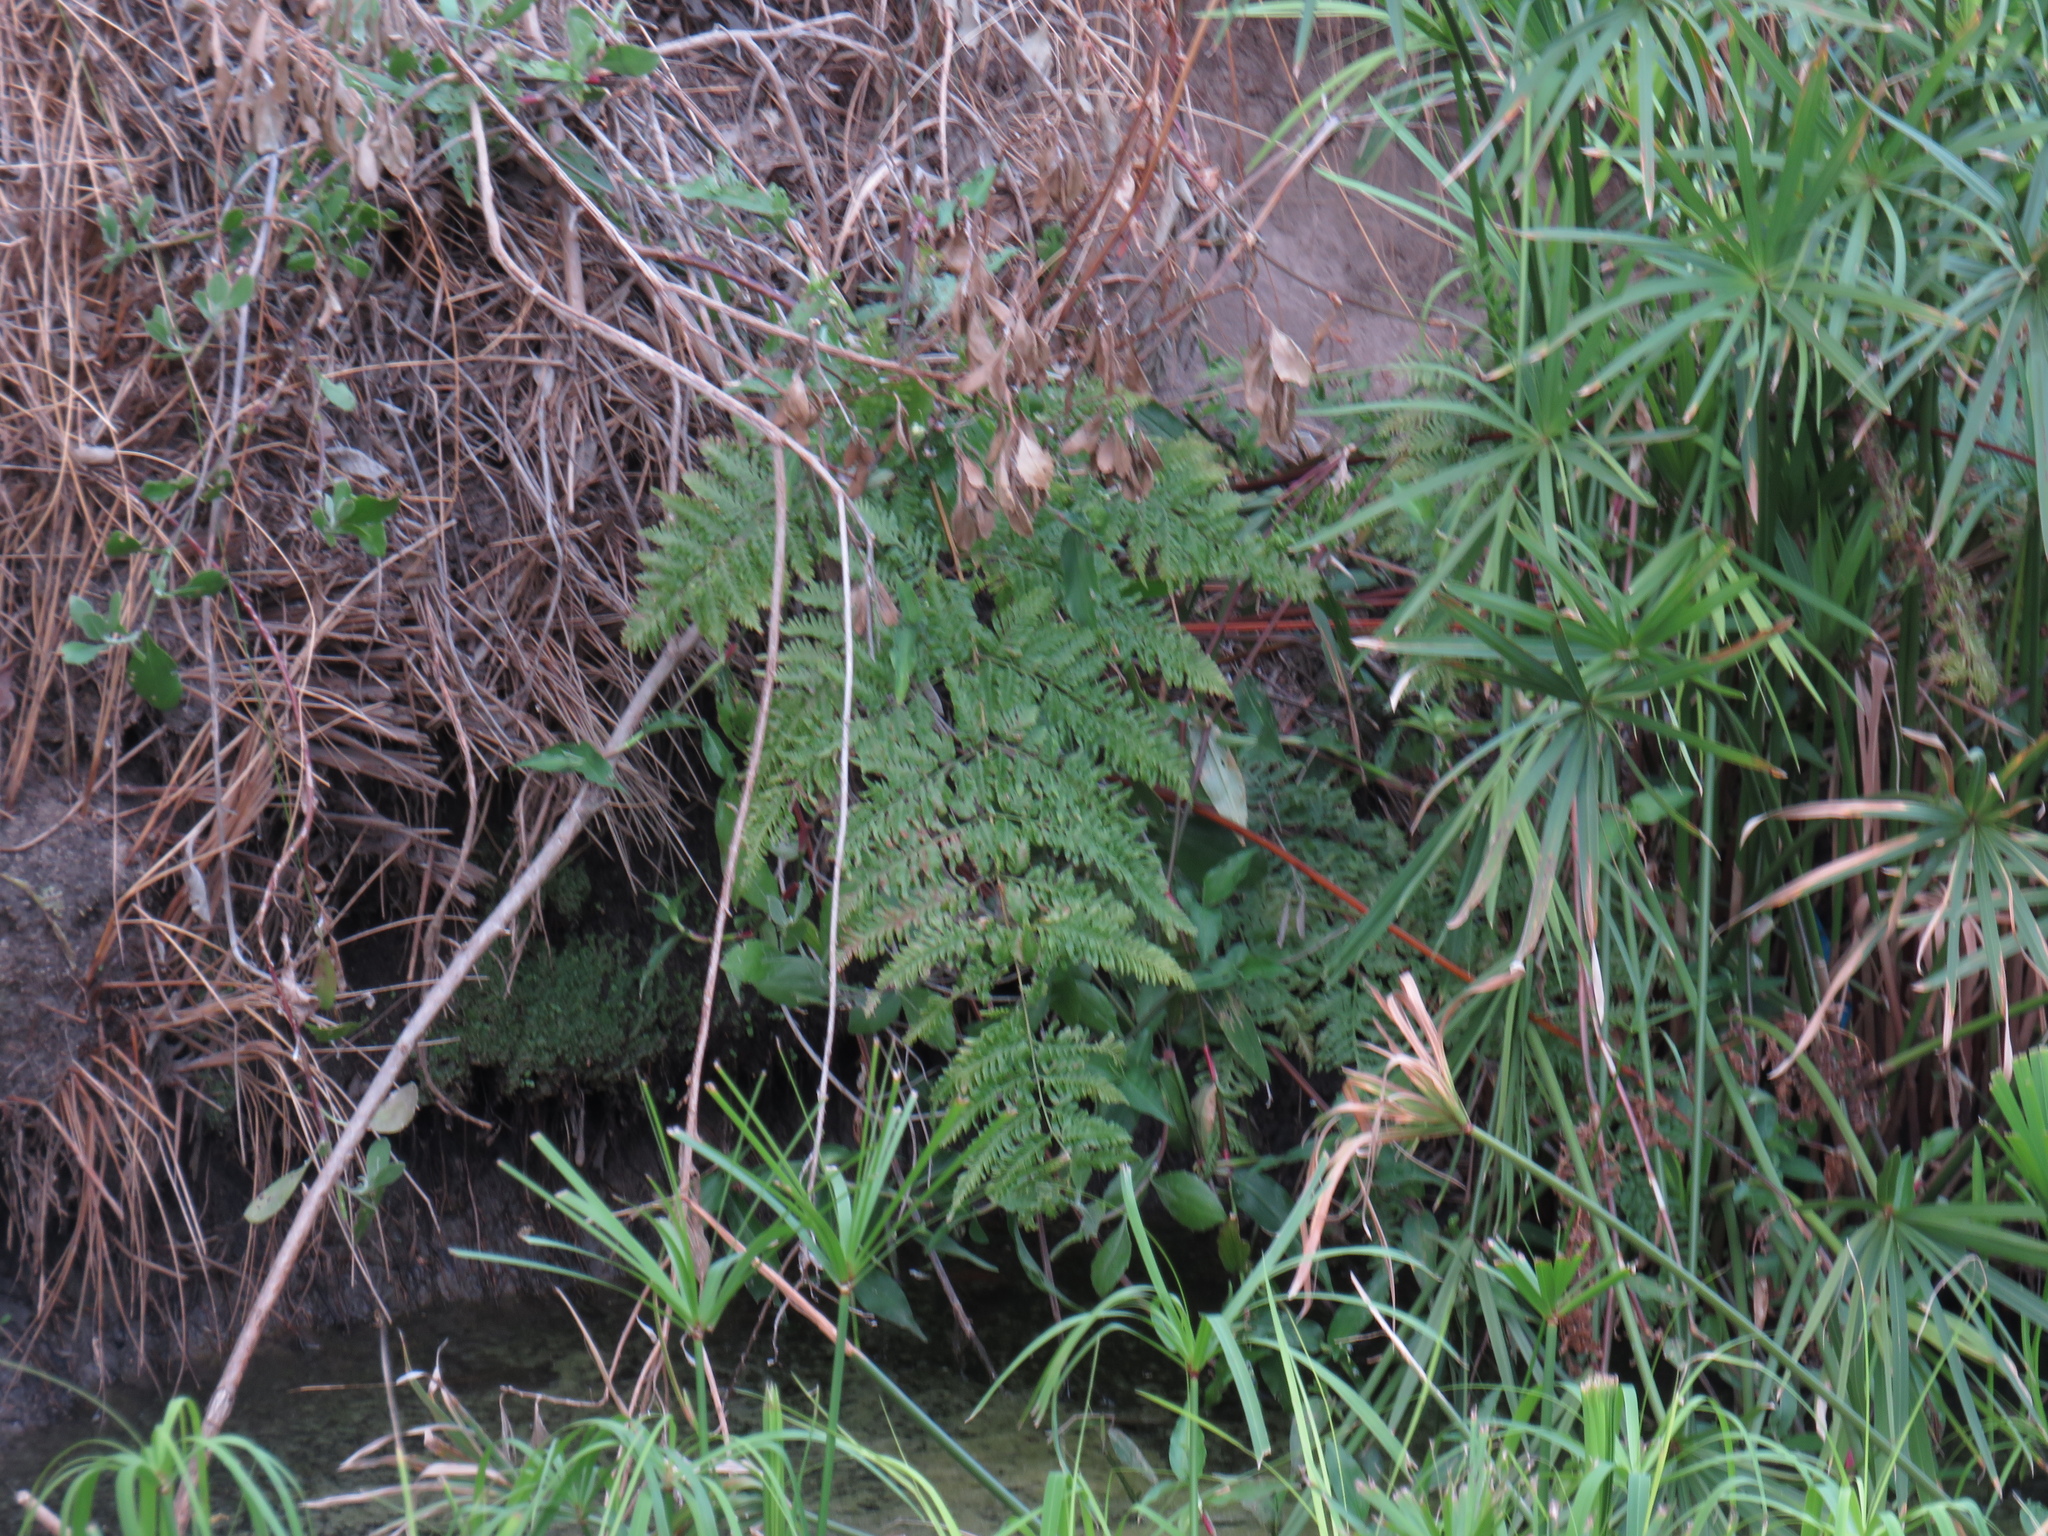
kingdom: Plantae
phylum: Tracheophyta
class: Polypodiopsida
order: Polypodiales
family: Pteridaceae
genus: Pteris
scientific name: Pteris tremula
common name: Australian brake
